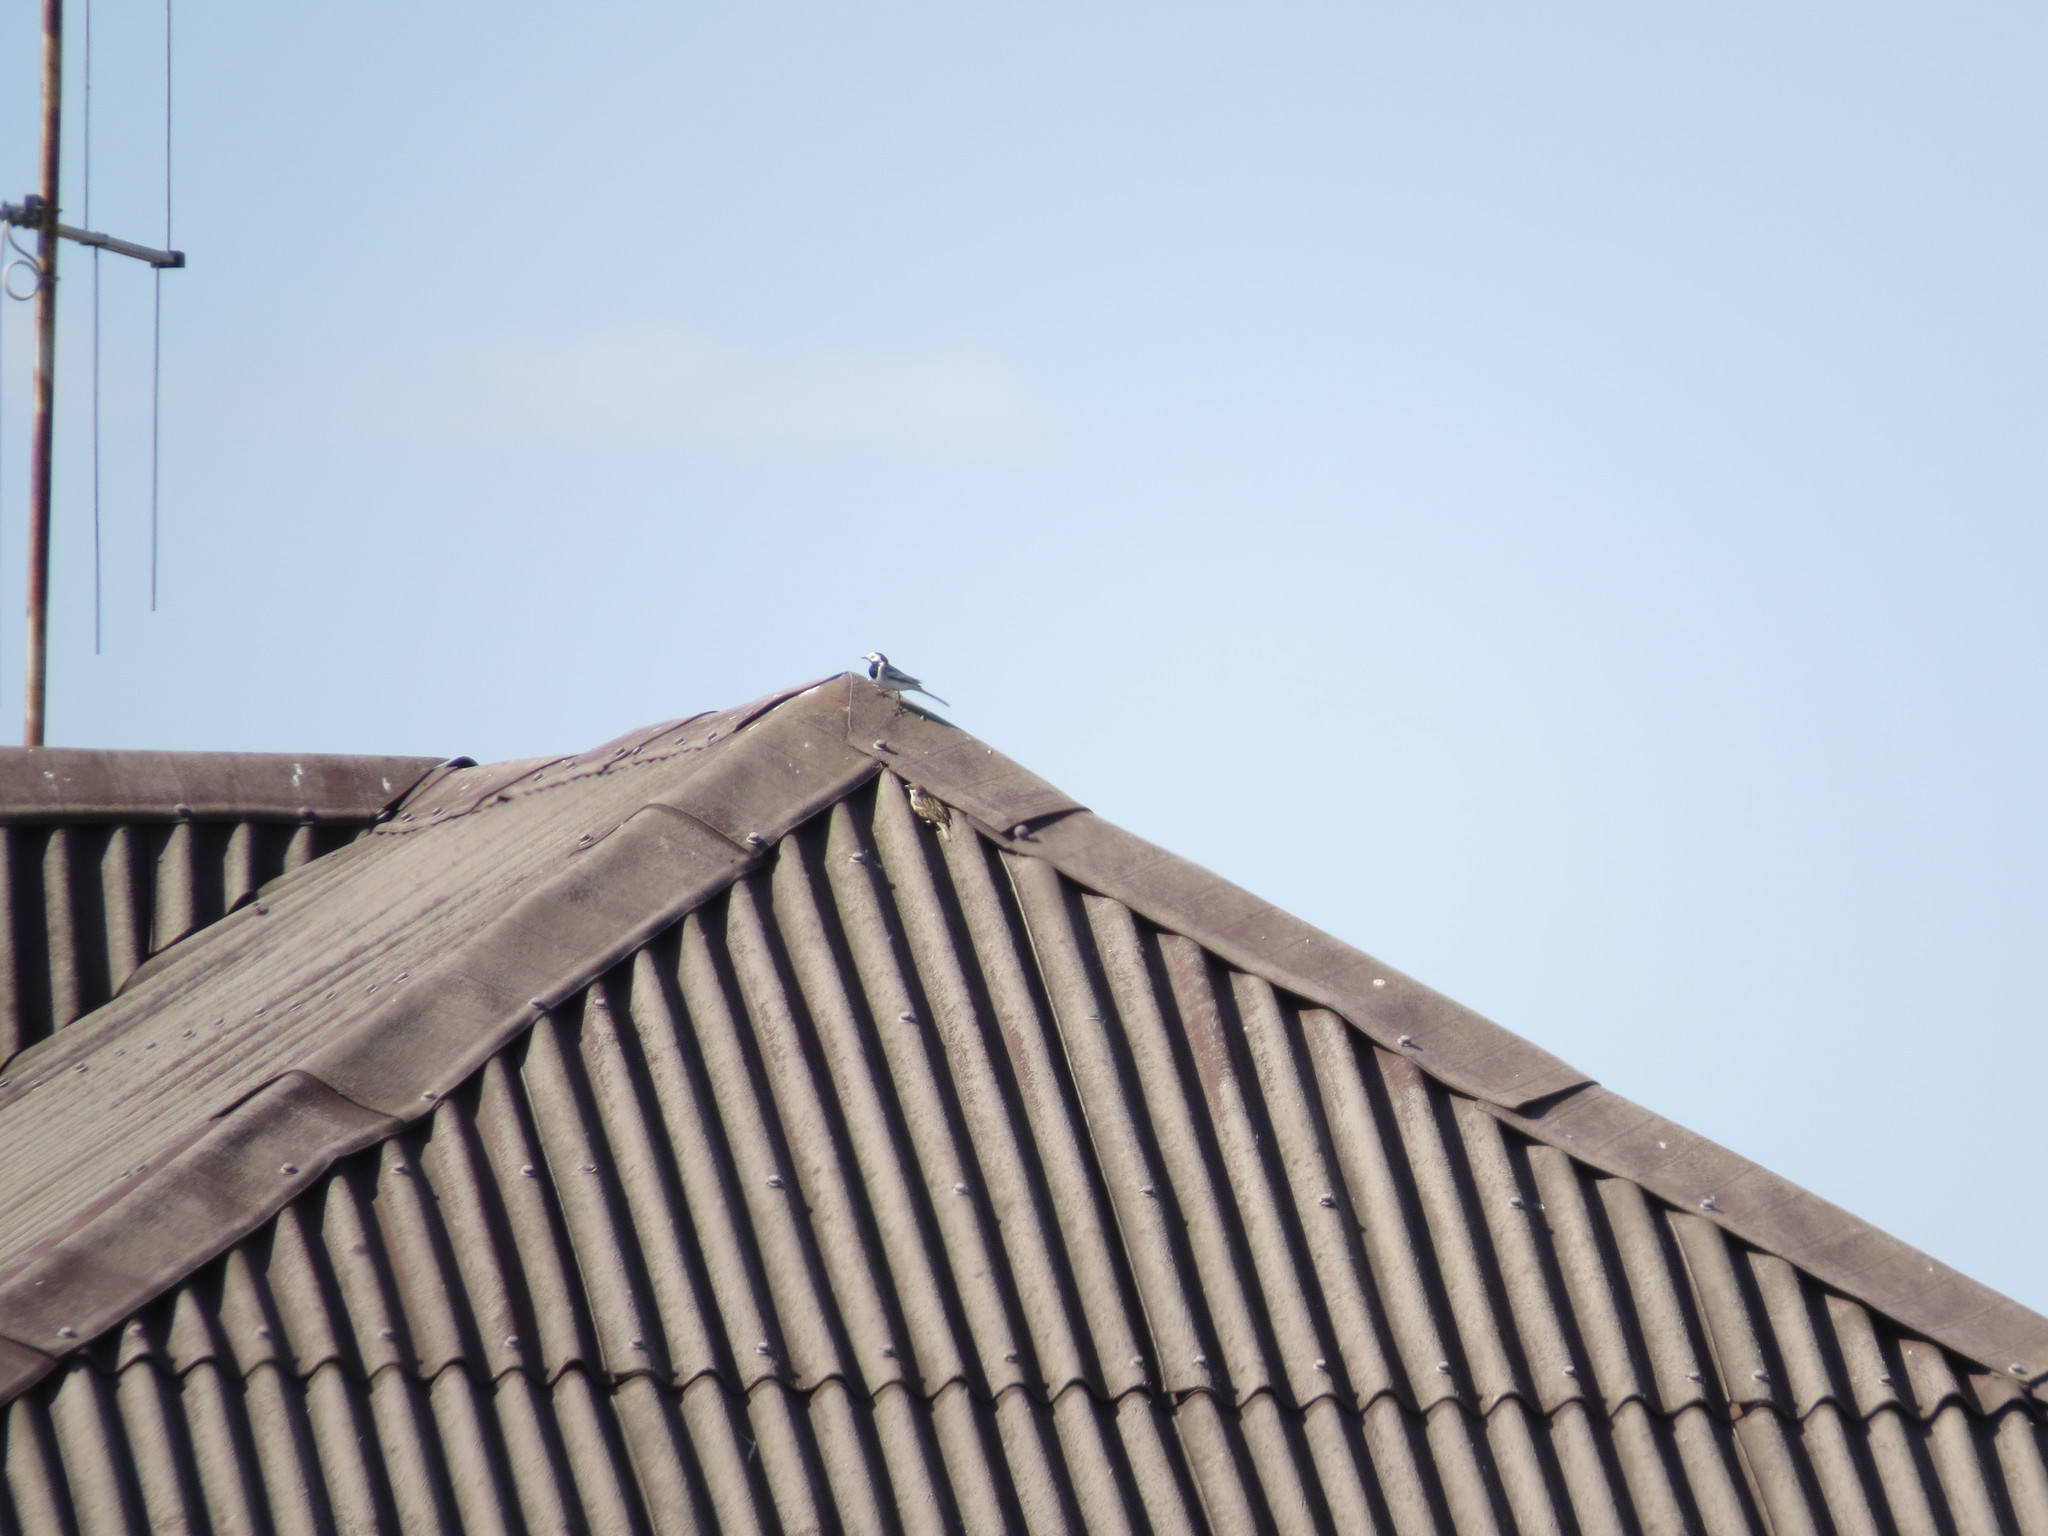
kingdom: Animalia
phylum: Chordata
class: Aves
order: Passeriformes
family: Motacillidae
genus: Motacilla
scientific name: Motacilla alba
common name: White wagtail
